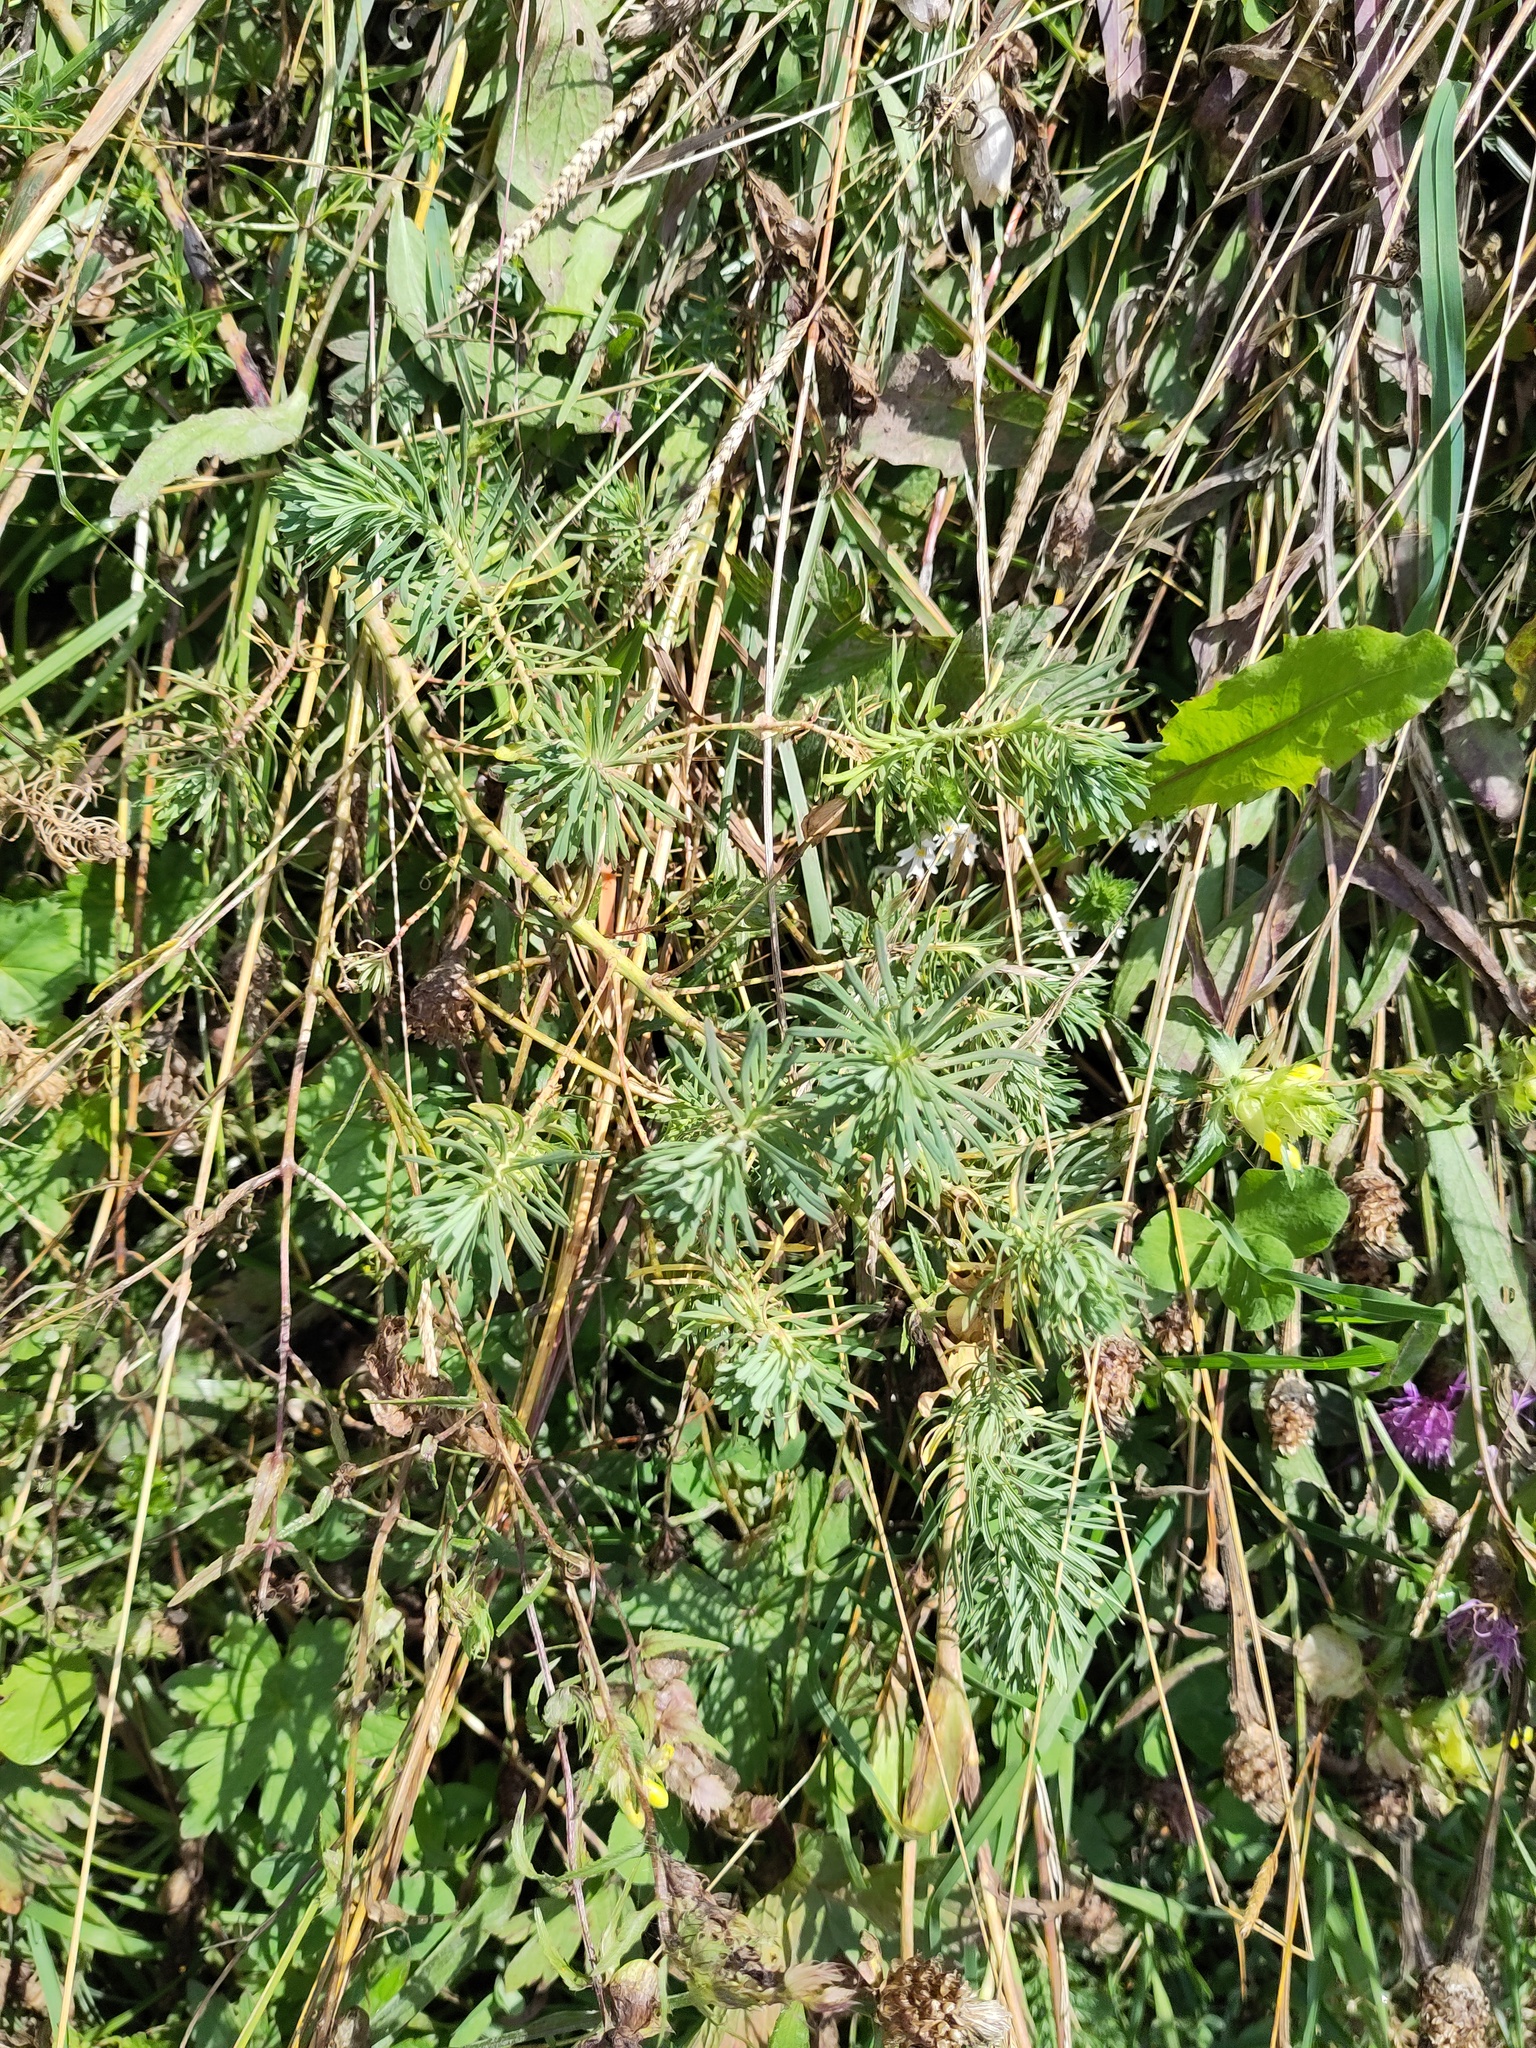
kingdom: Plantae
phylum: Tracheophyta
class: Magnoliopsida
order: Malpighiales
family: Euphorbiaceae
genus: Euphorbia
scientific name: Euphorbia cyparissias
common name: Cypress spurge
